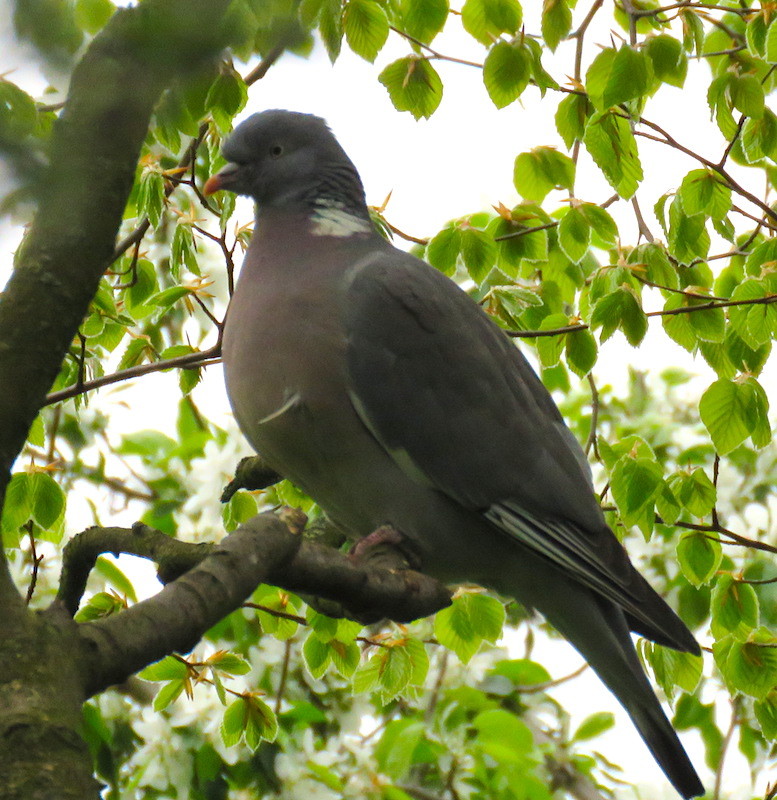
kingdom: Animalia
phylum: Chordata
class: Aves
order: Columbiformes
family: Columbidae
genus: Columba
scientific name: Columba palumbus
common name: Common wood pigeon
